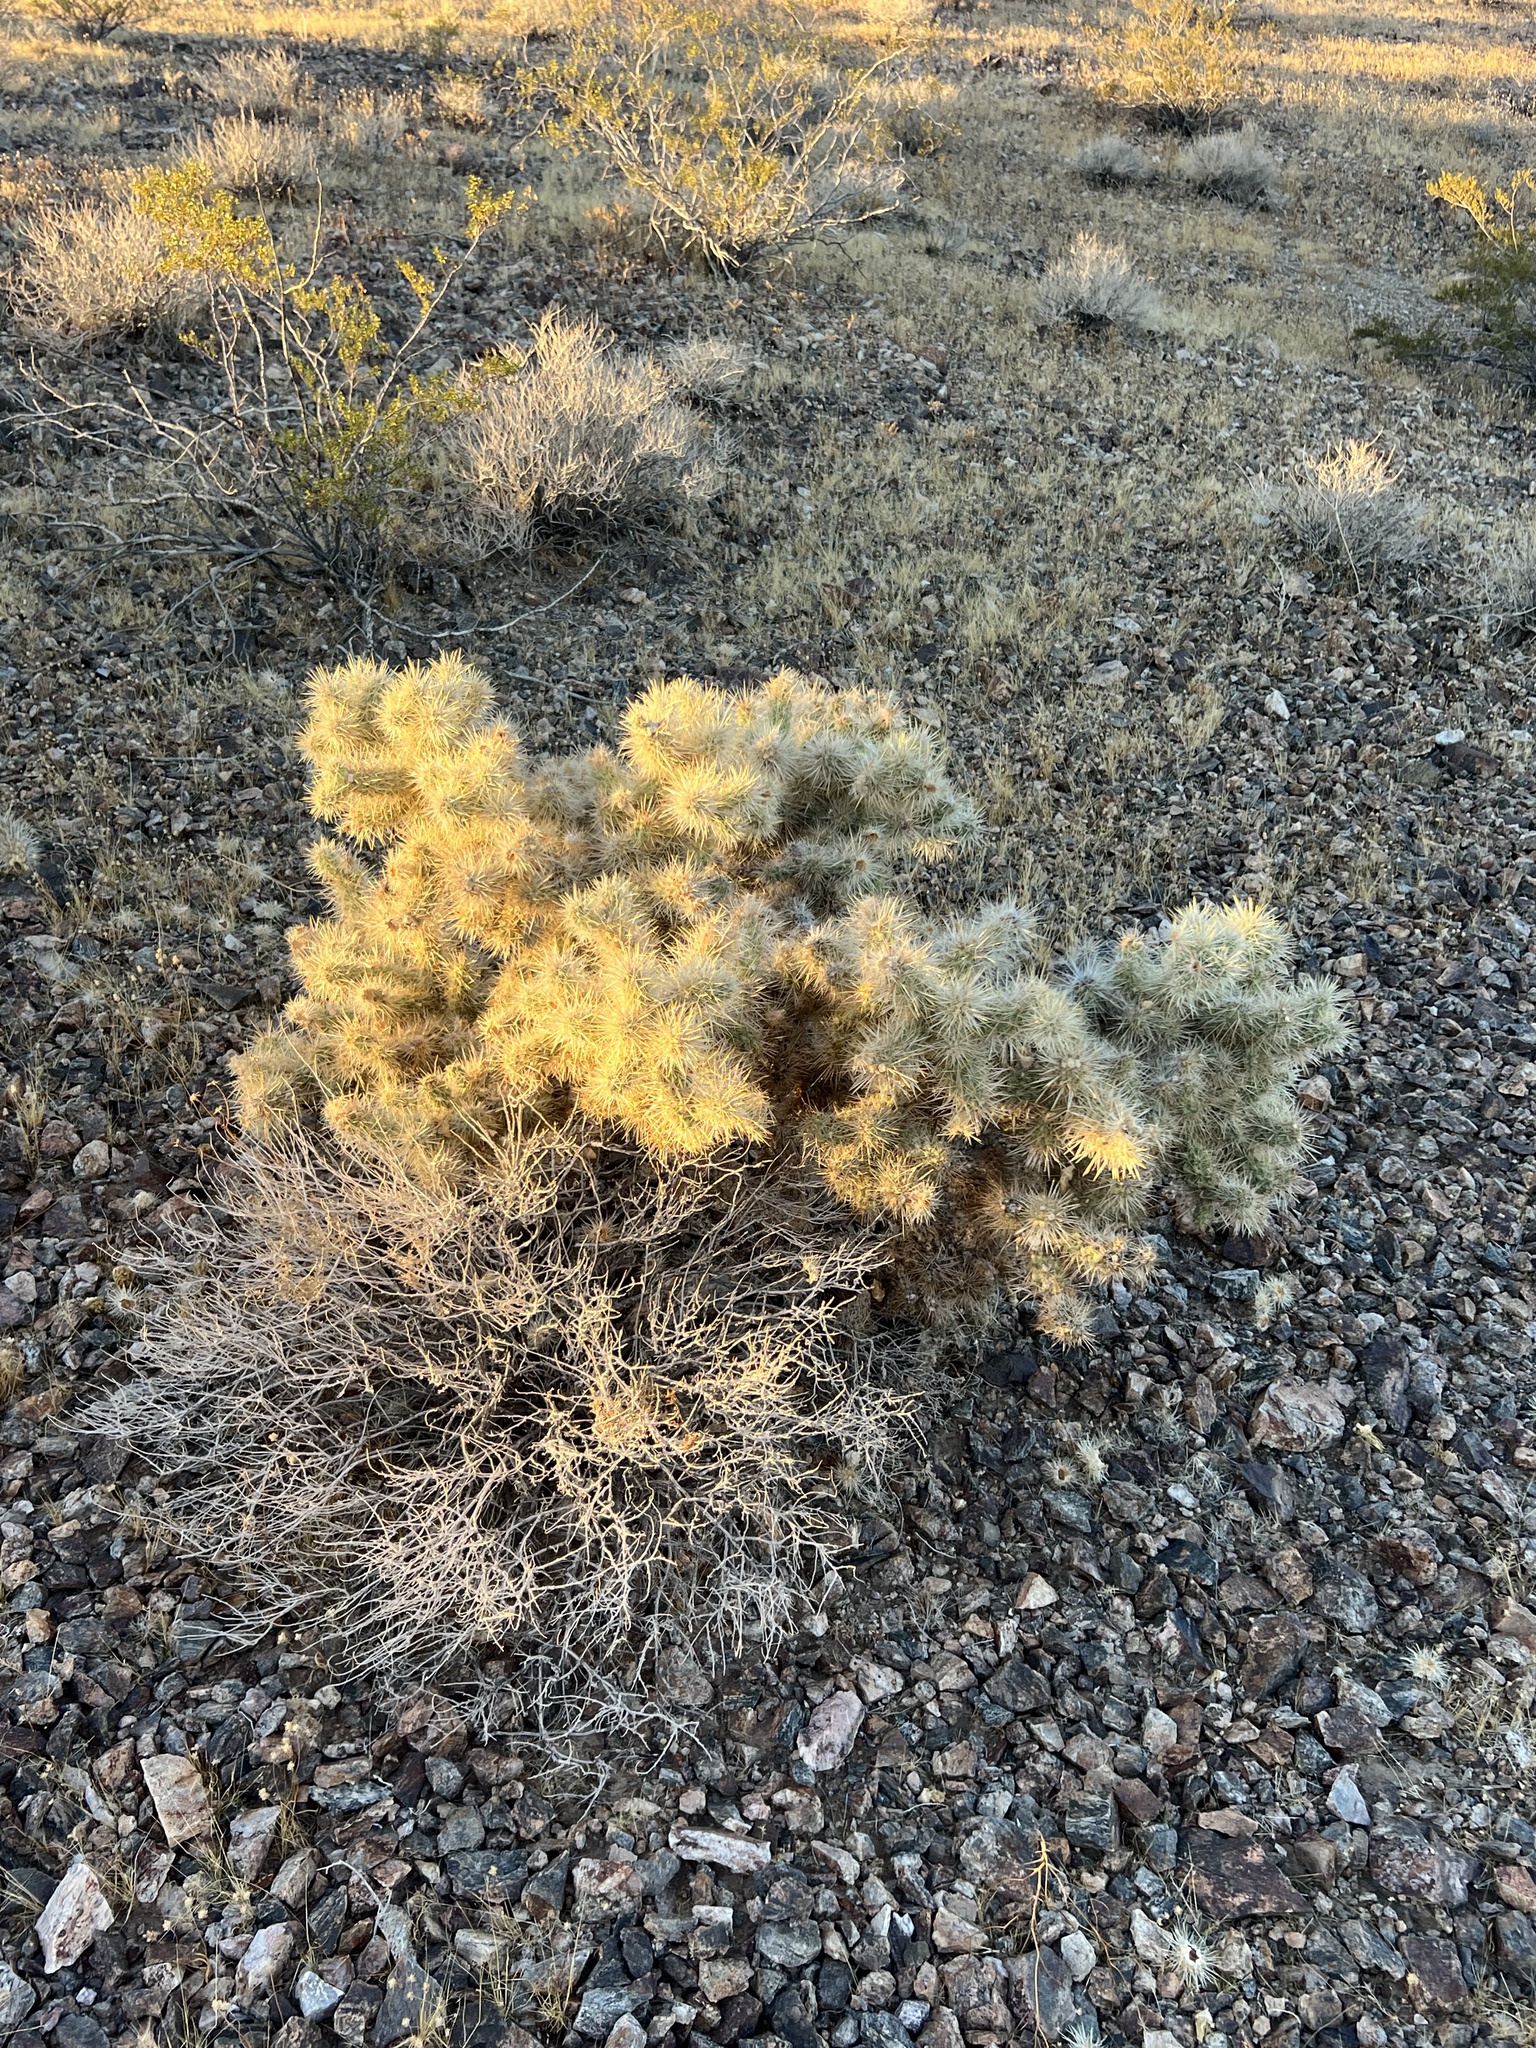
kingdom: Plantae
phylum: Tracheophyta
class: Magnoliopsida
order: Caryophyllales
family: Cactaceae
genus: Cylindropuntia
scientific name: Cylindropuntia echinocarpa
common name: Ground cholla
